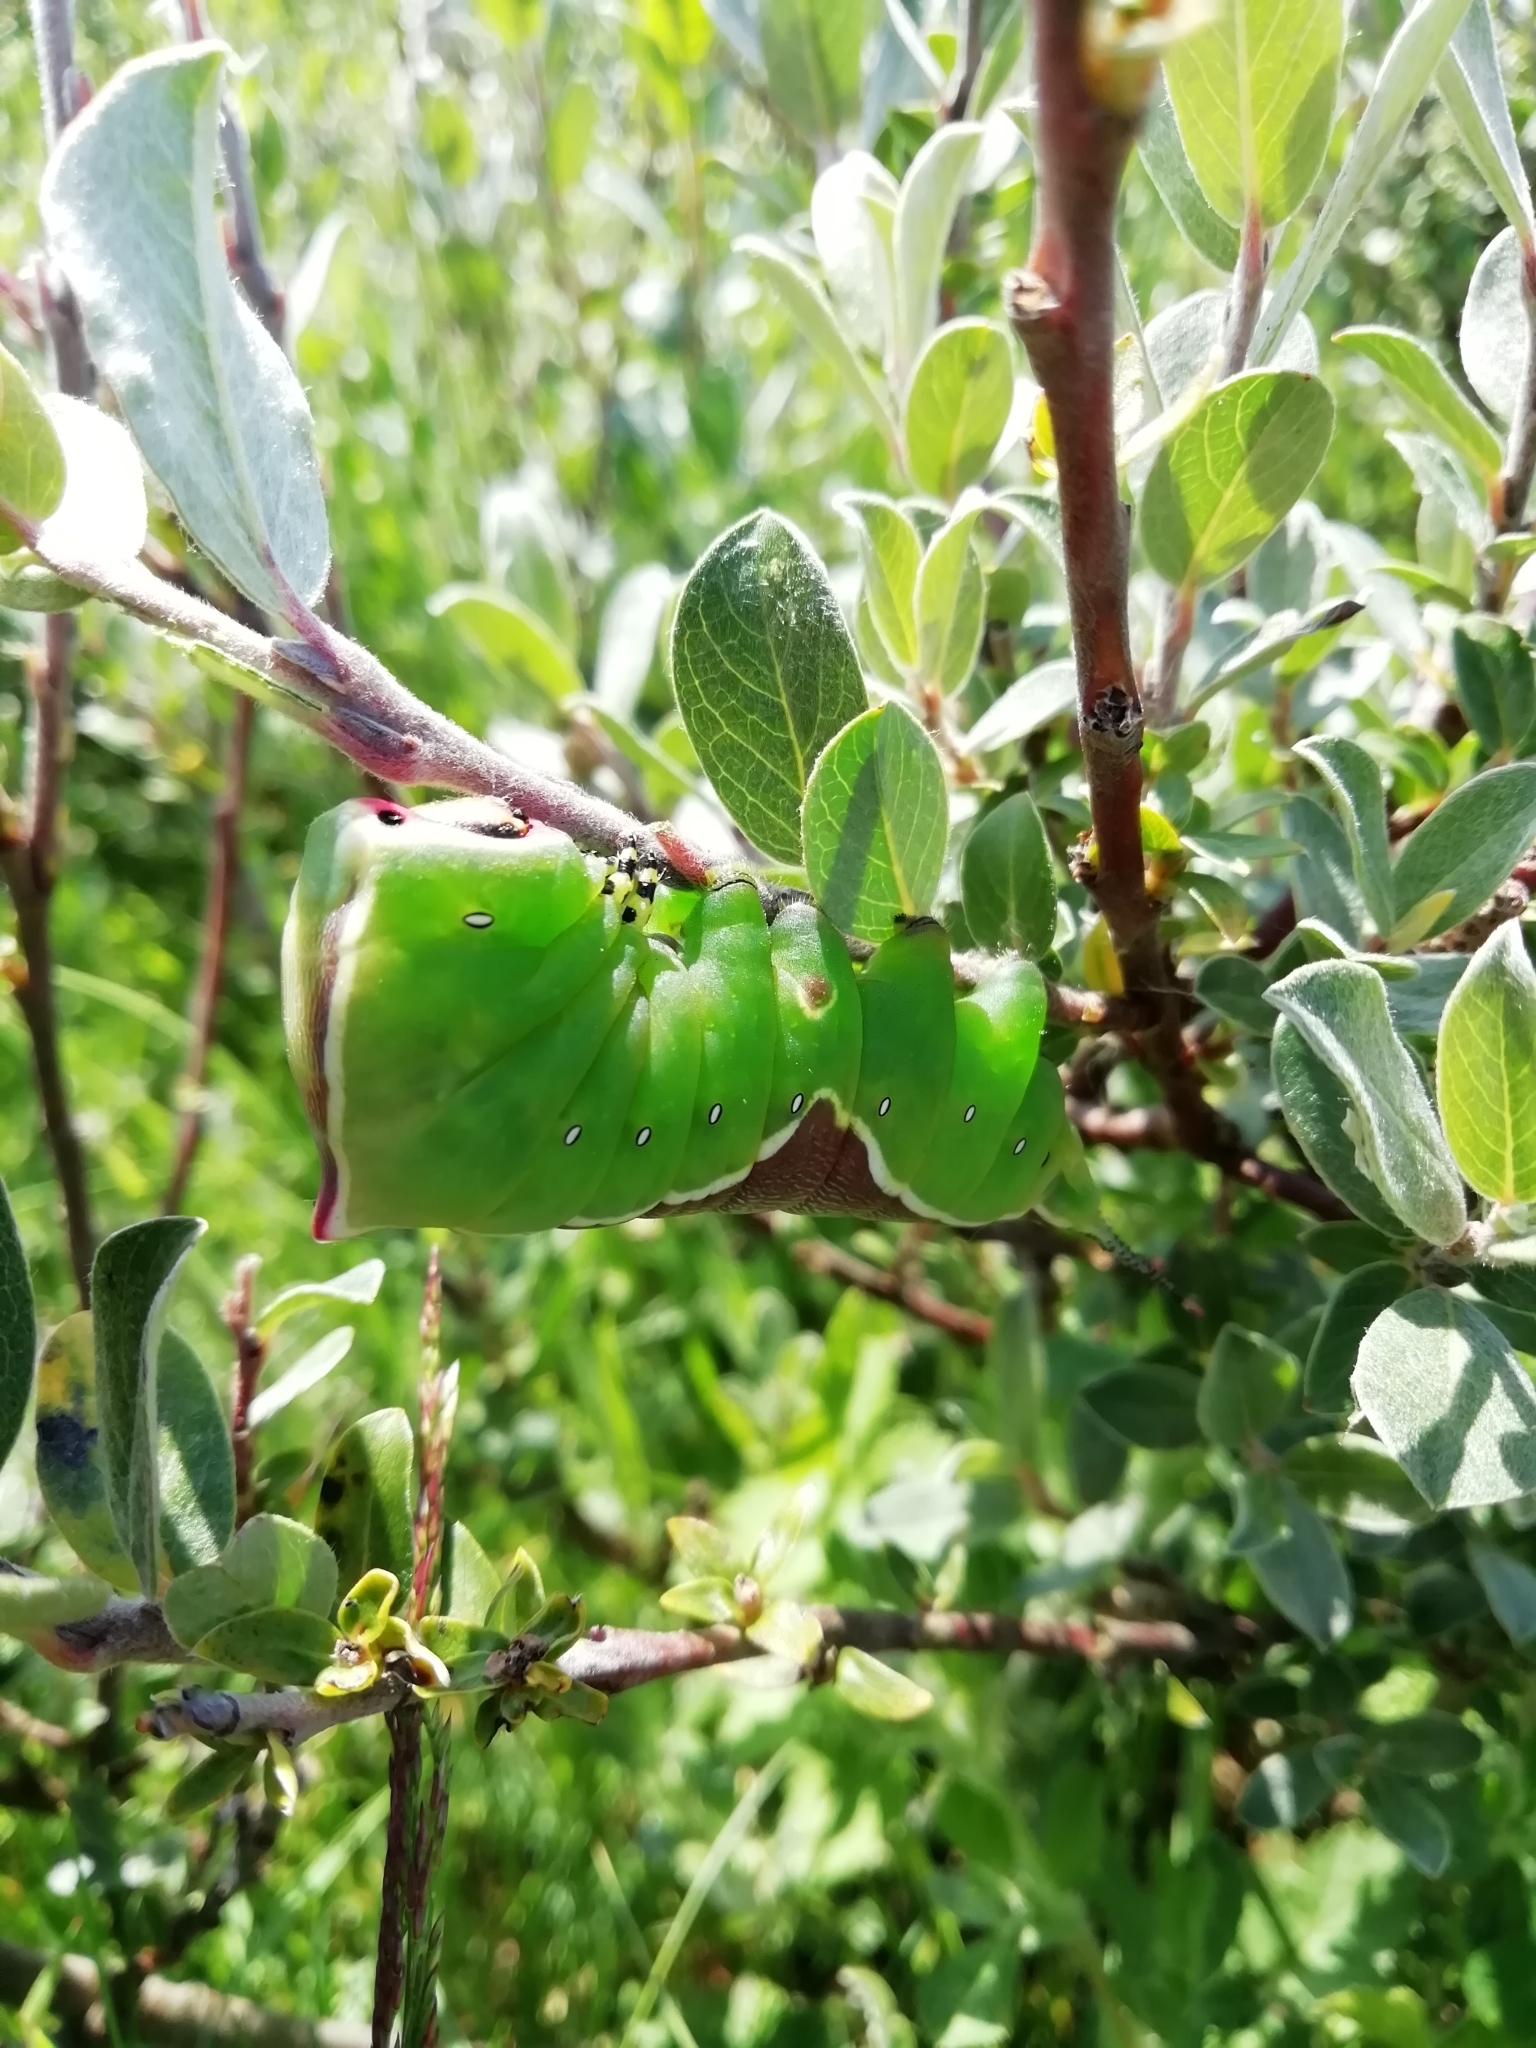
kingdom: Animalia
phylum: Arthropoda
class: Insecta
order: Lepidoptera
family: Notodontidae
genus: Cerura
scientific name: Cerura vinula
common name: Puss moth
